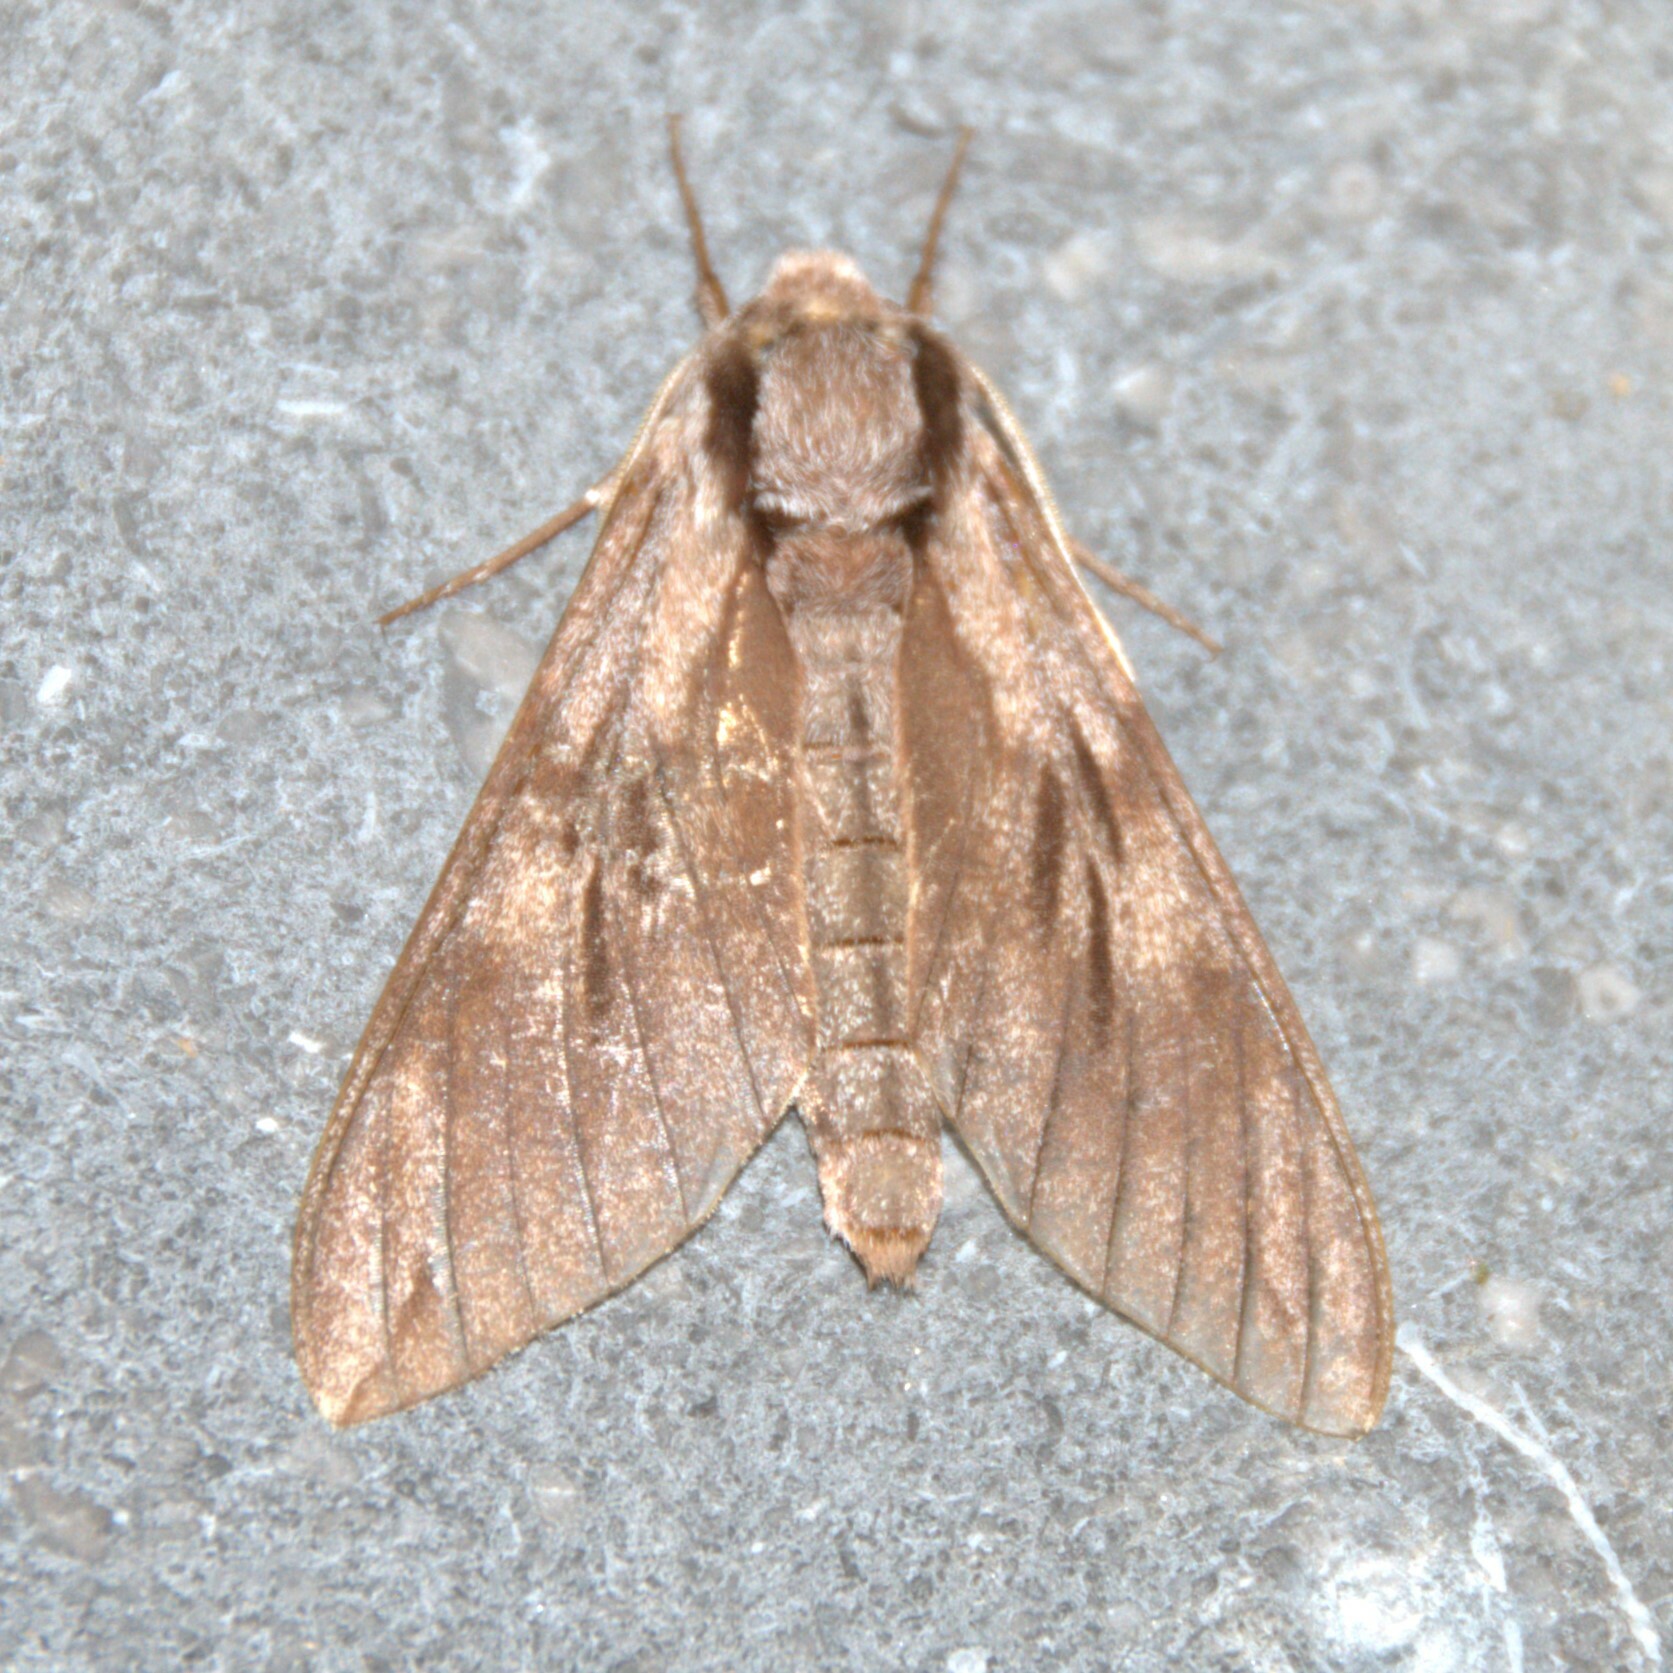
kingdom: Animalia
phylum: Arthropoda
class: Insecta
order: Lepidoptera
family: Sphingidae
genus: Sphinx
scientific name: Sphinx pinastri
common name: Pine hawk-moth
